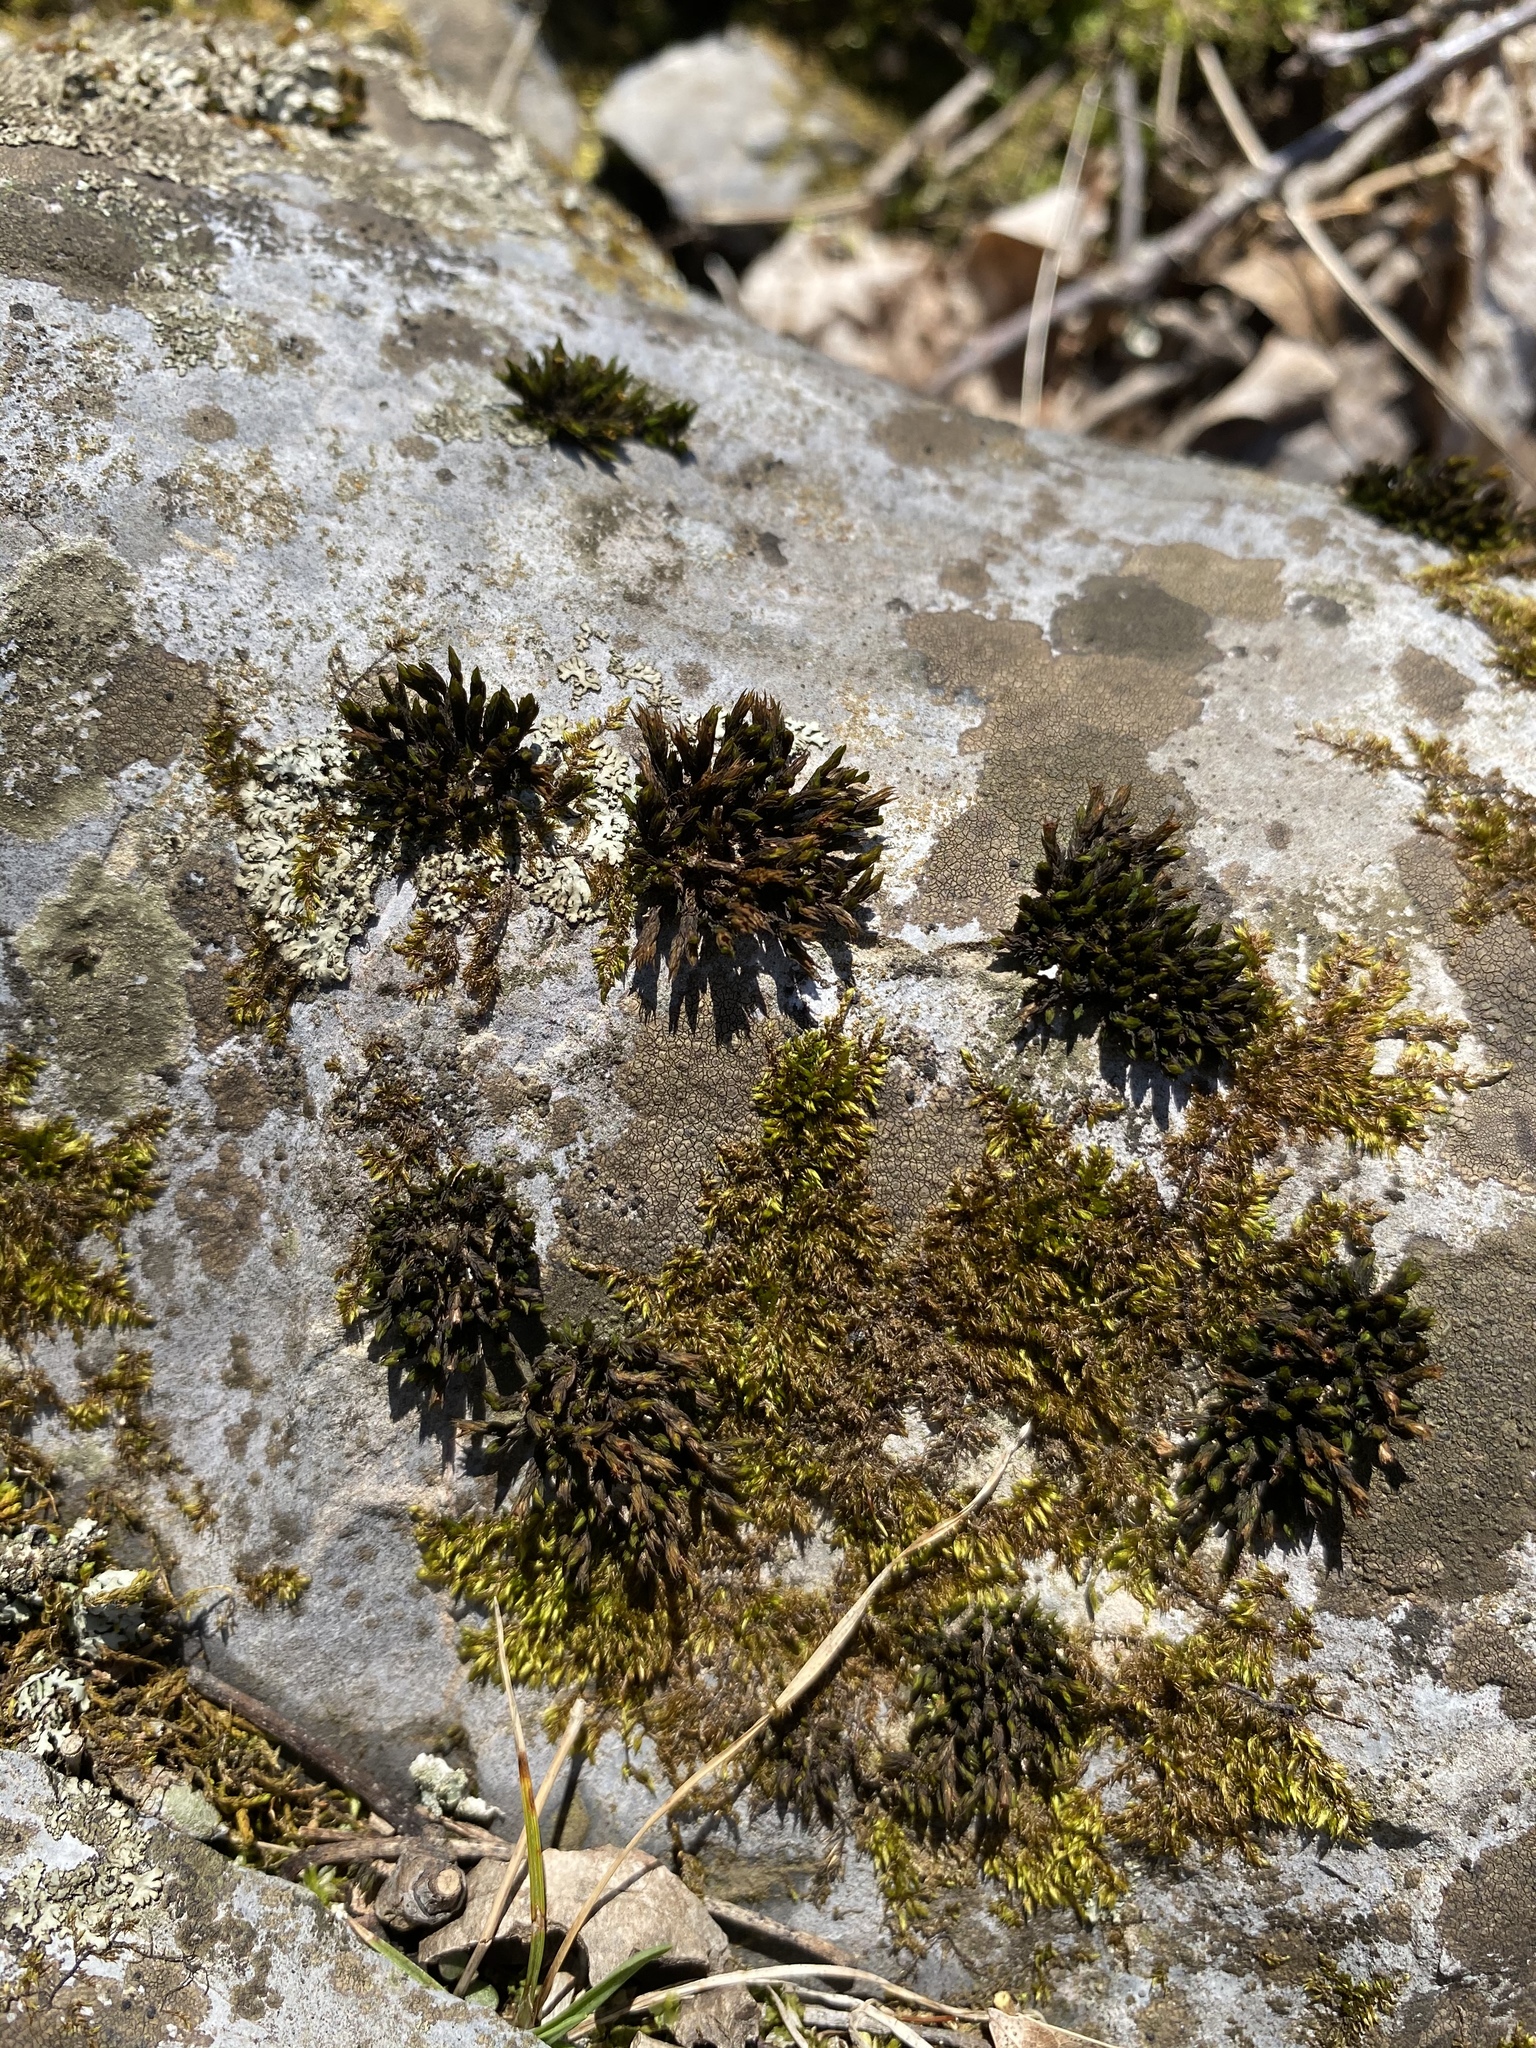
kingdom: Plantae
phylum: Bryophyta
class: Bryopsida
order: Grimmiales
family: Grimmiaceae
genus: Grimmia
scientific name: Grimmia
